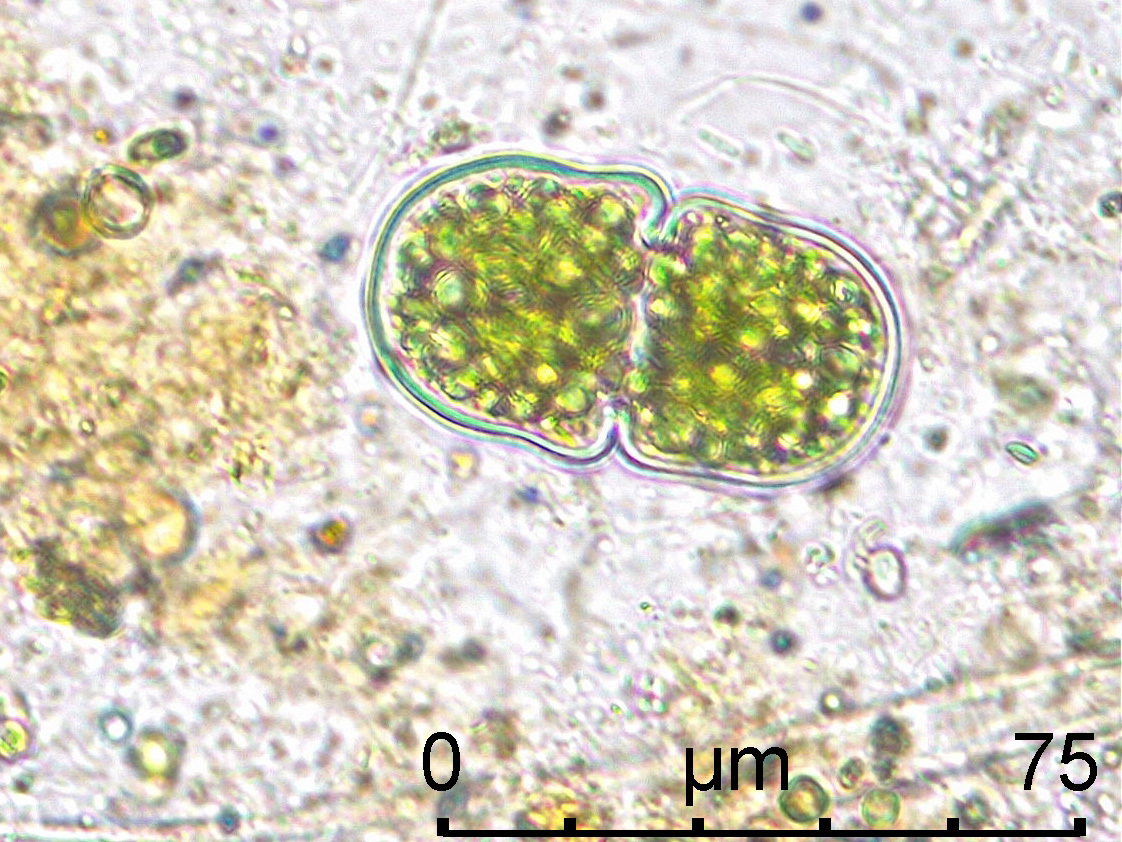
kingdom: Plantae
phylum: Charophyta
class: Conjugatophyceae
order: Desmidiales
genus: Cosmarium
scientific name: Cosmarium quadratum
